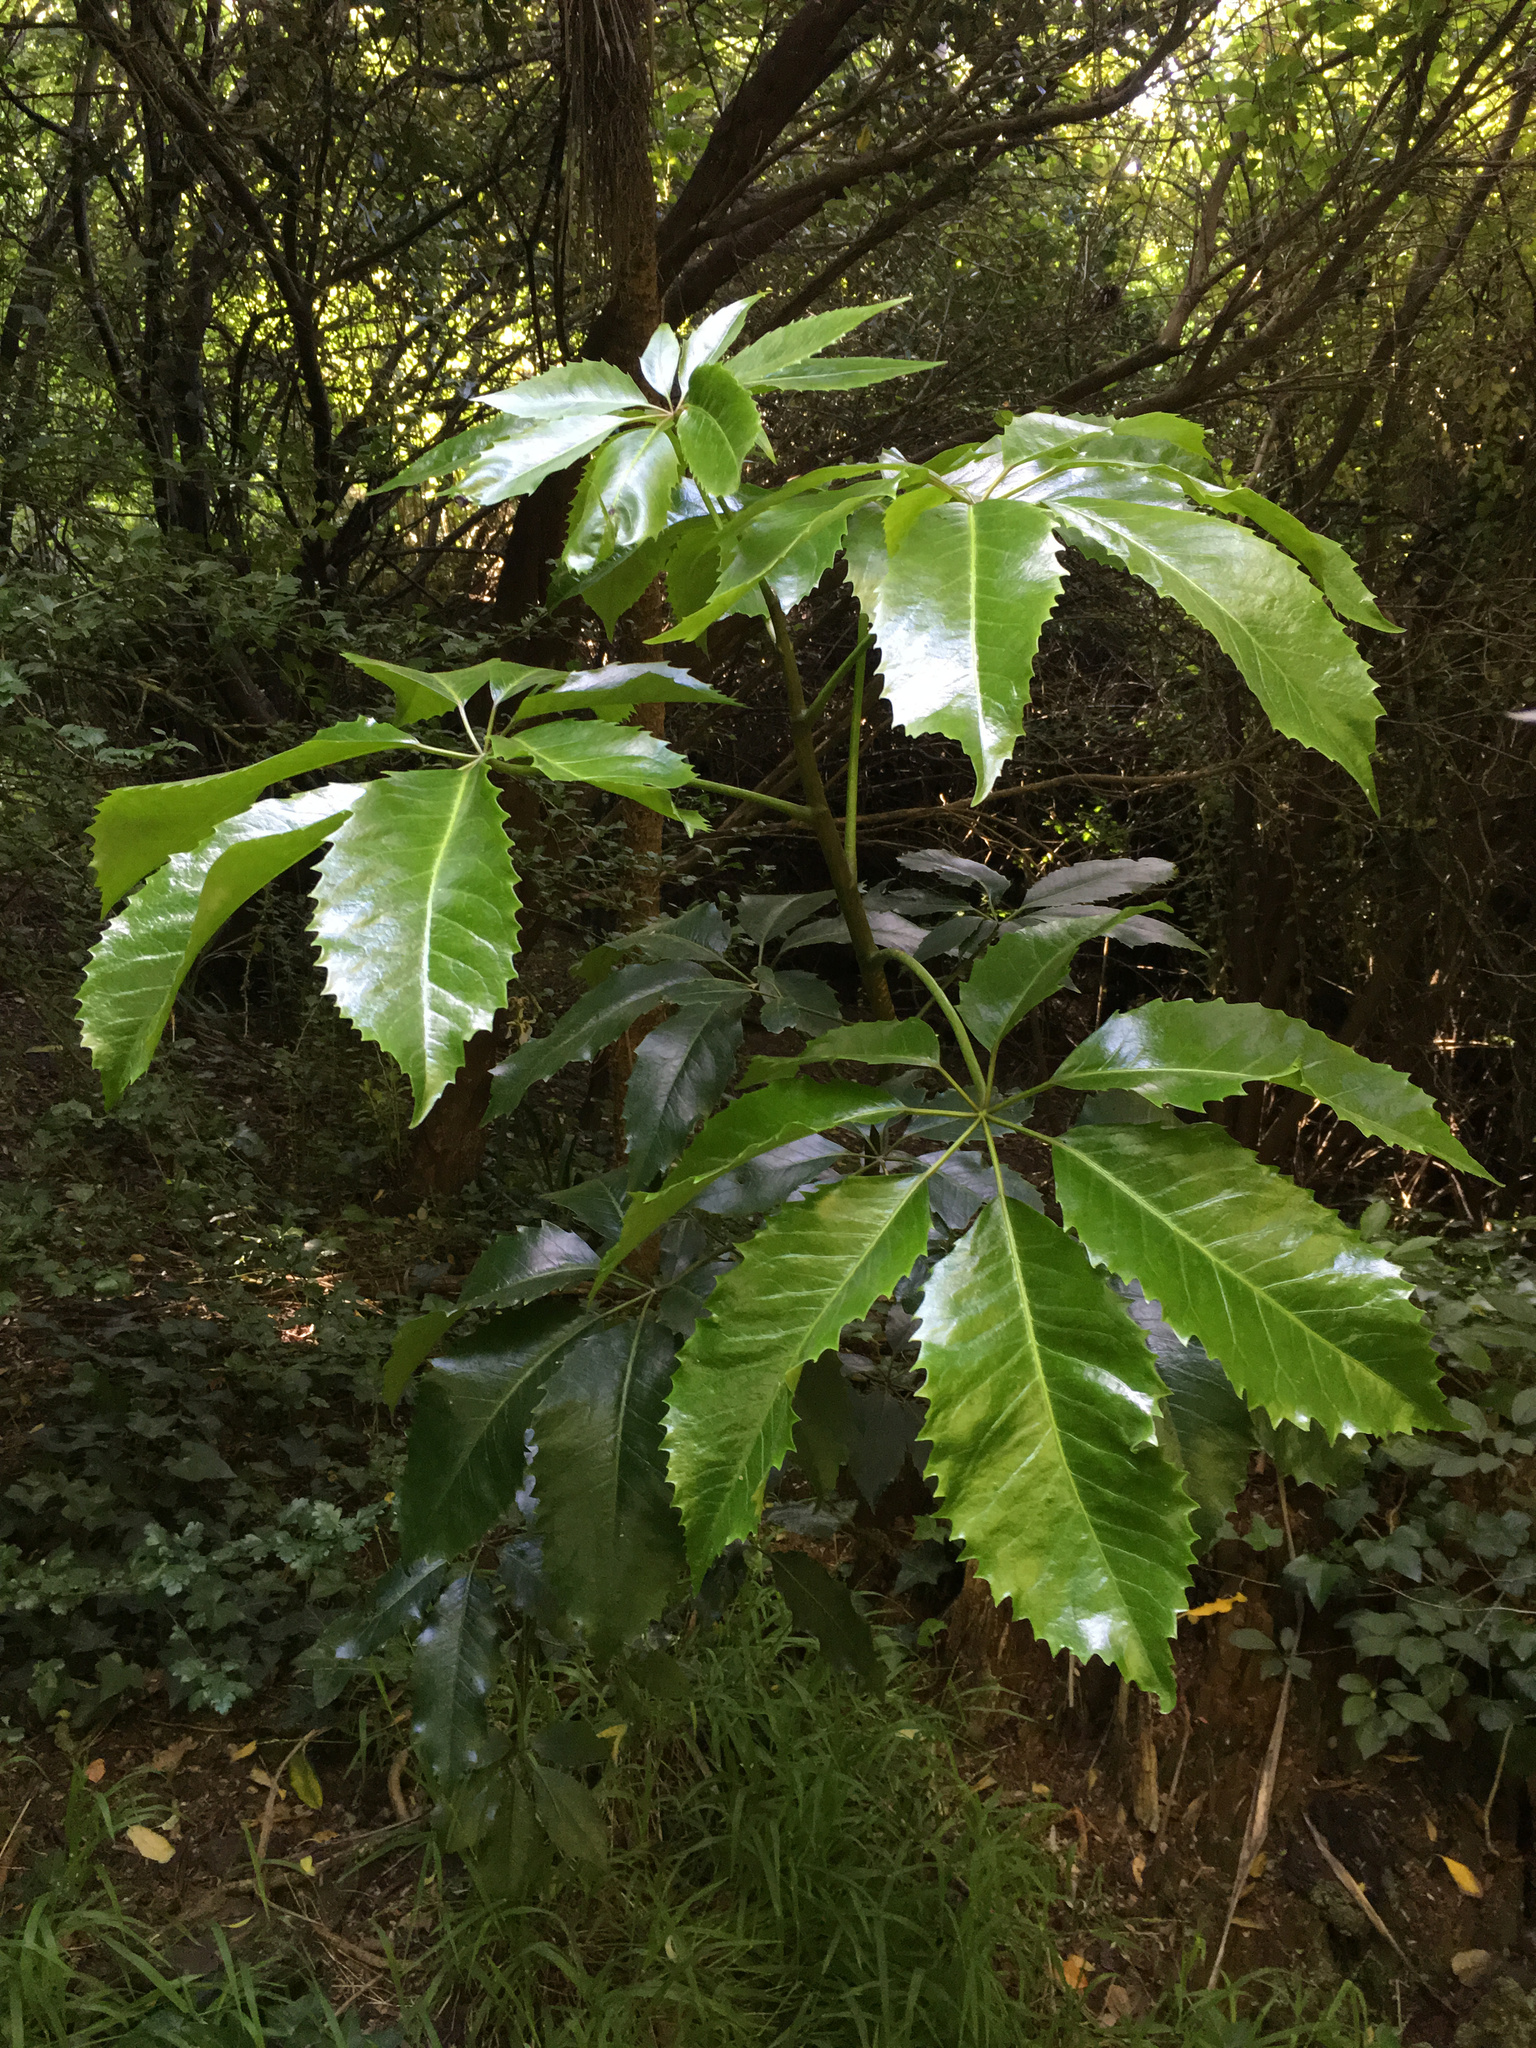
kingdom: Plantae
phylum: Tracheophyta
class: Magnoliopsida
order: Apiales
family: Araliaceae
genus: Neopanax
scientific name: Neopanax arboreus
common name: Five-fingers
